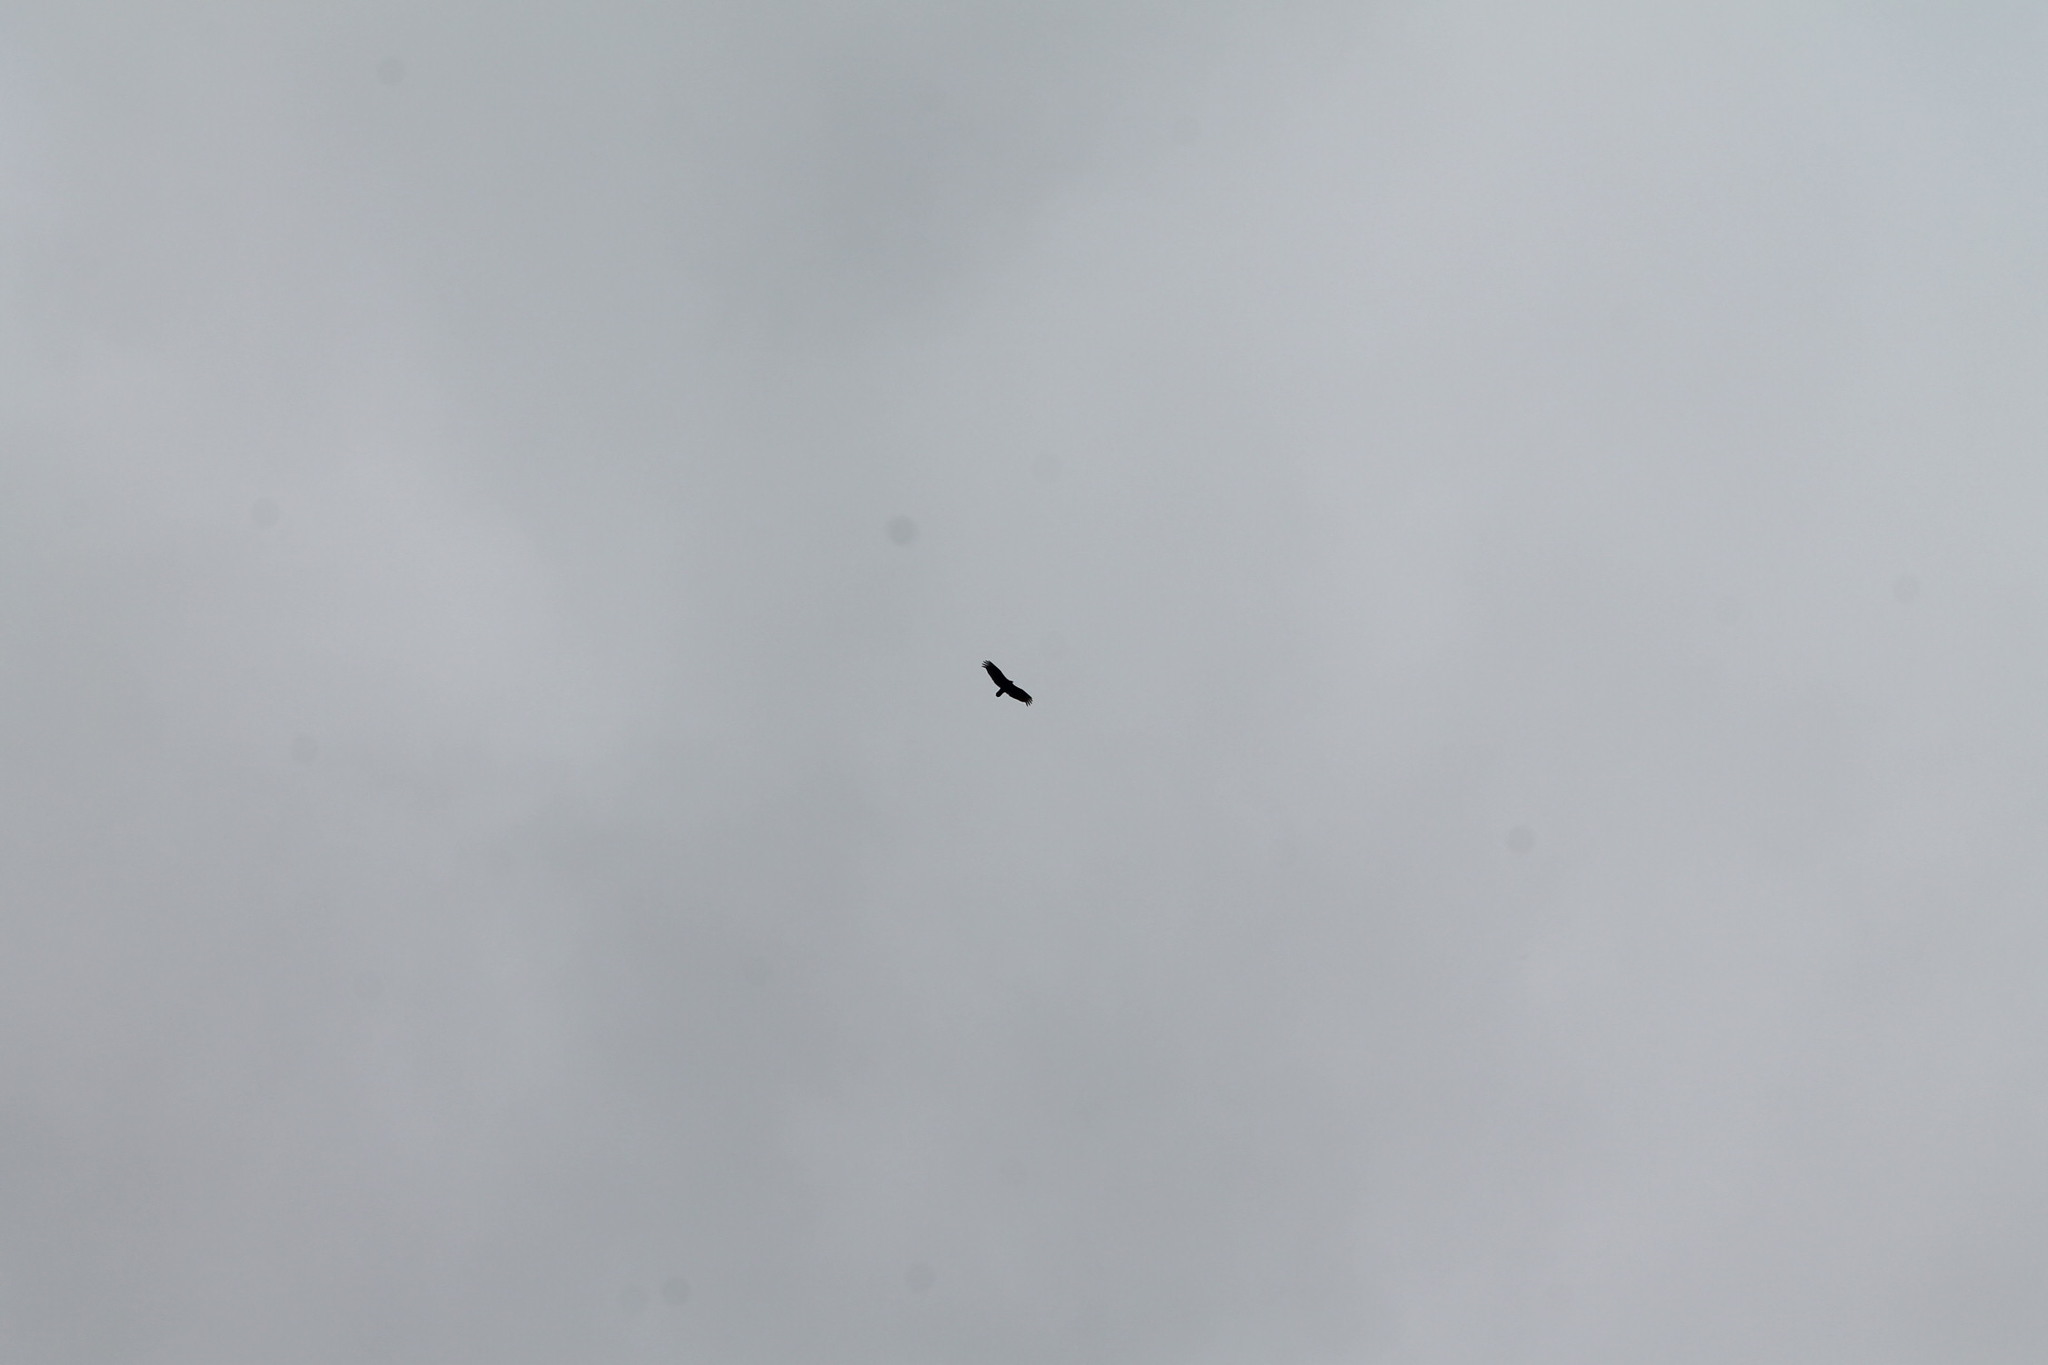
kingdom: Animalia
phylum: Chordata
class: Aves
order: Accipitriformes
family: Cathartidae
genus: Cathartes
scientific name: Cathartes aura
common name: Turkey vulture
